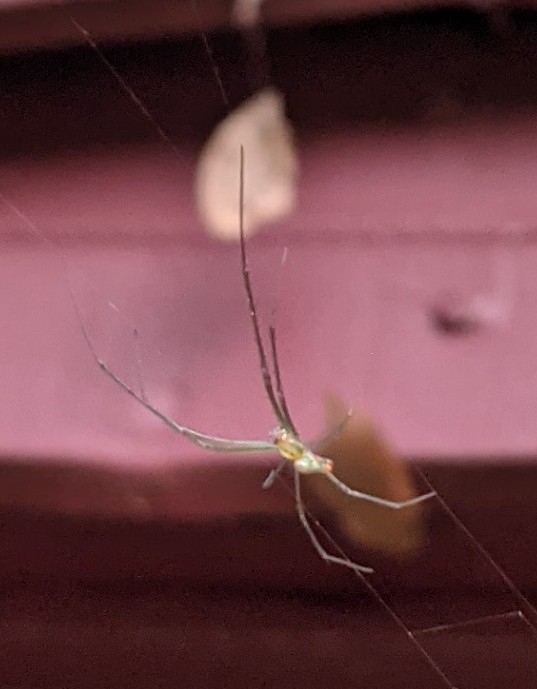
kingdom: Animalia
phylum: Arthropoda
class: Arachnida
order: Araneae
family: Tetragnathidae
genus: Leucauge
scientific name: Leucauge argyrobapta
